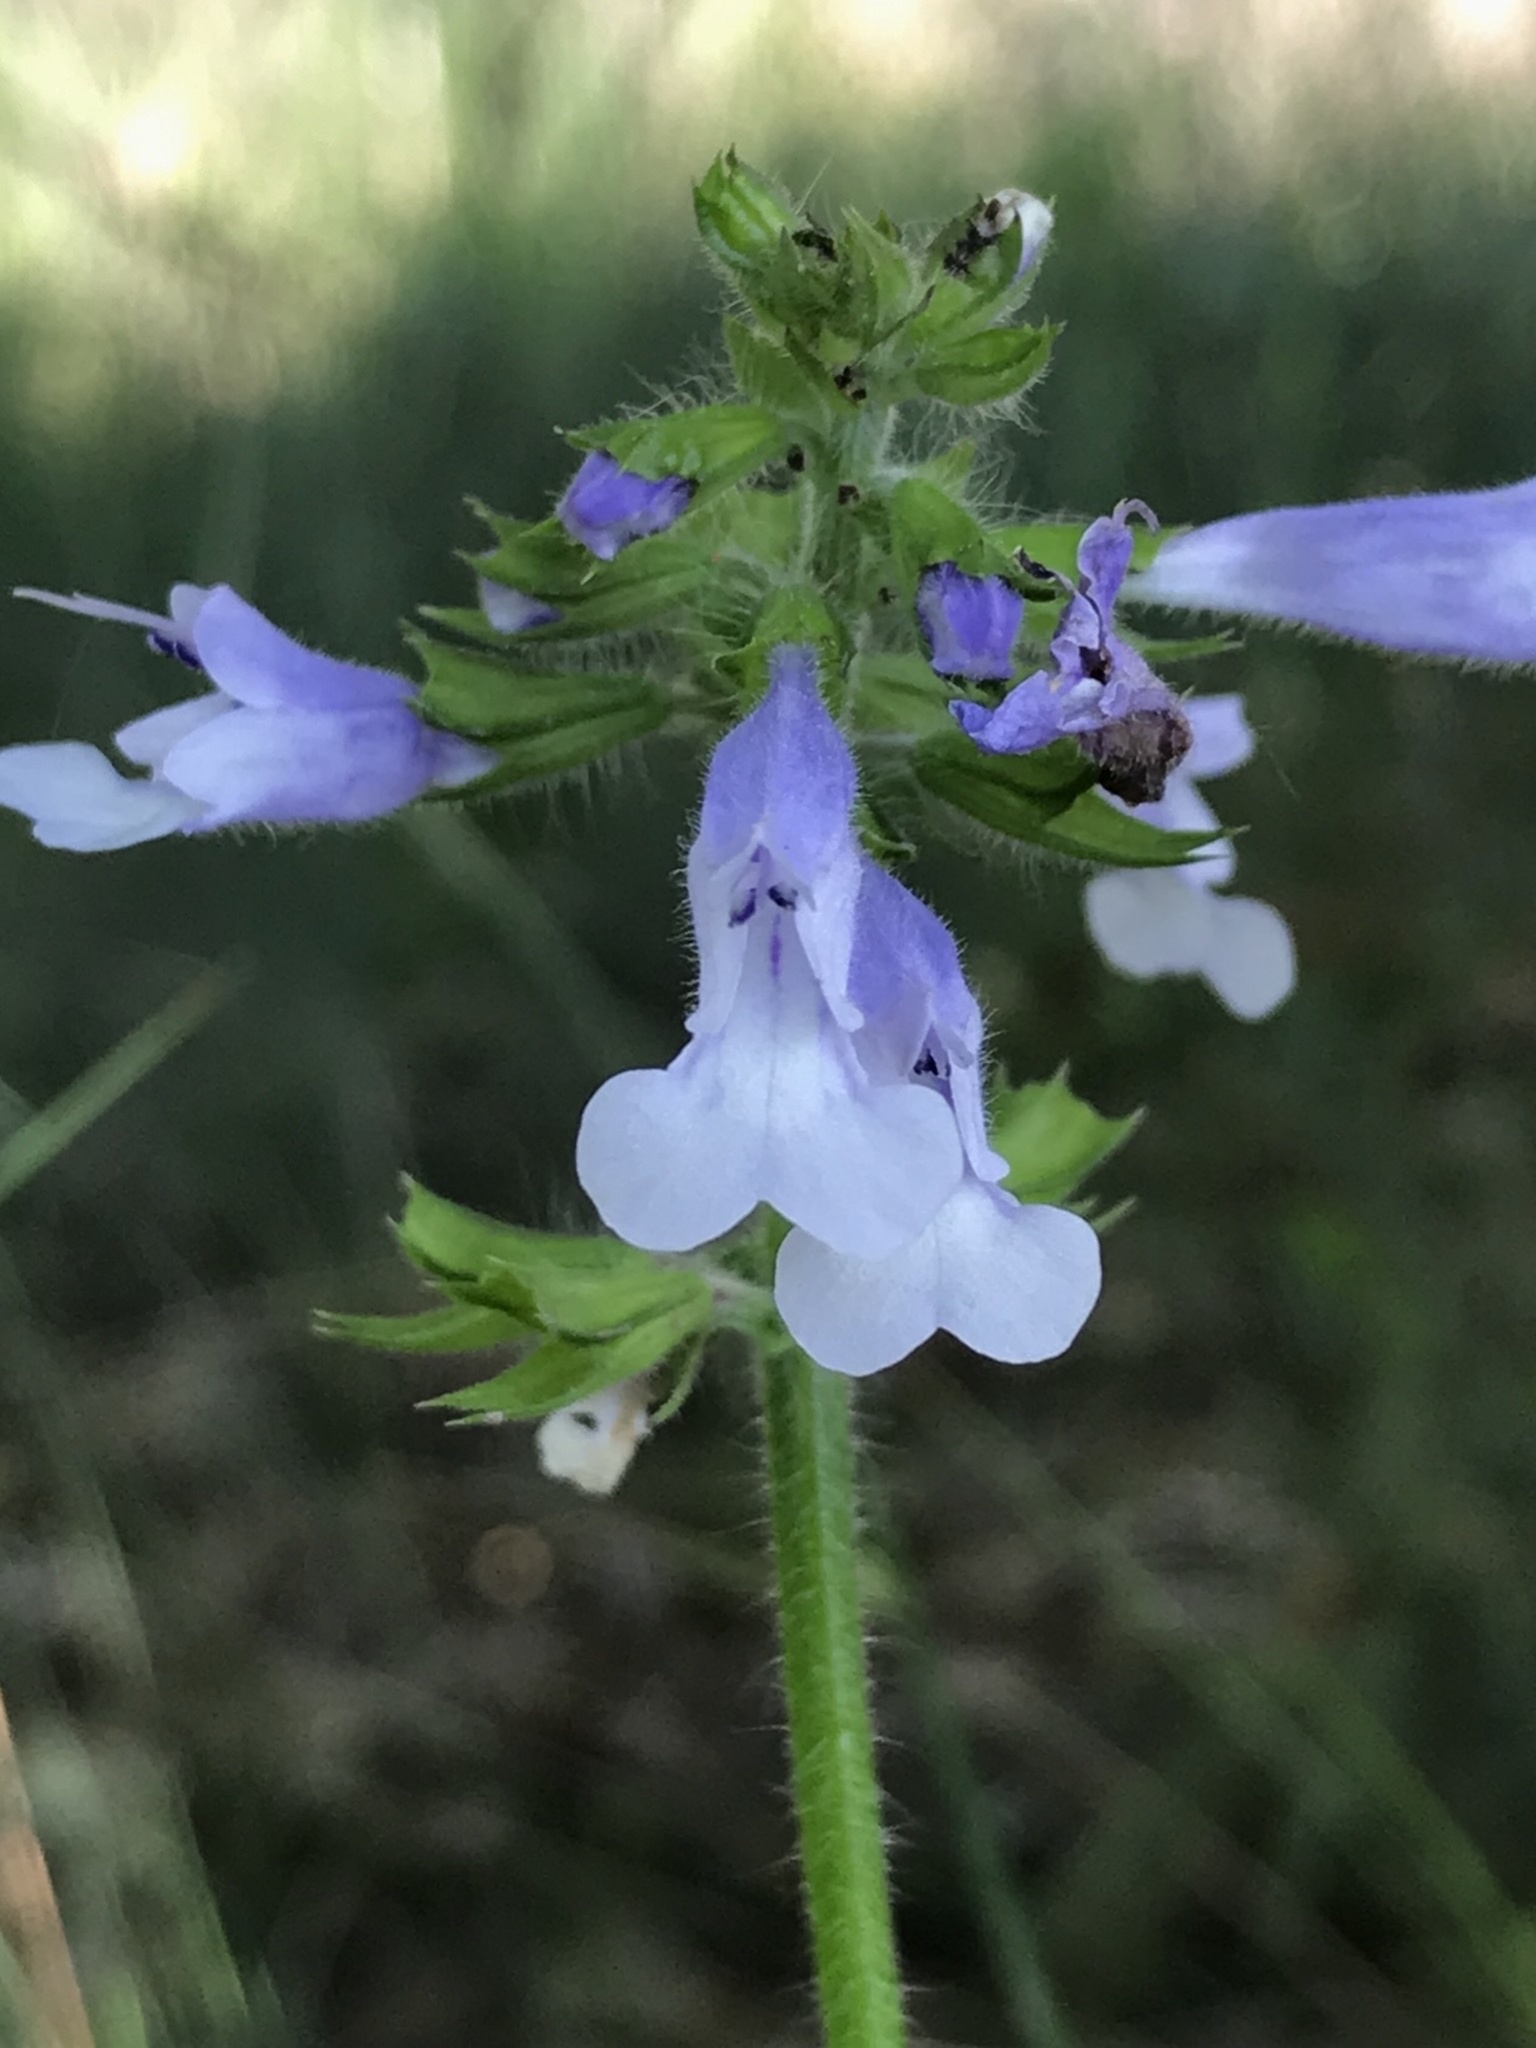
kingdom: Plantae
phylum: Tracheophyta
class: Magnoliopsida
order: Lamiales
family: Lamiaceae
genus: Salvia
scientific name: Salvia lyrata
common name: Cancerweed
